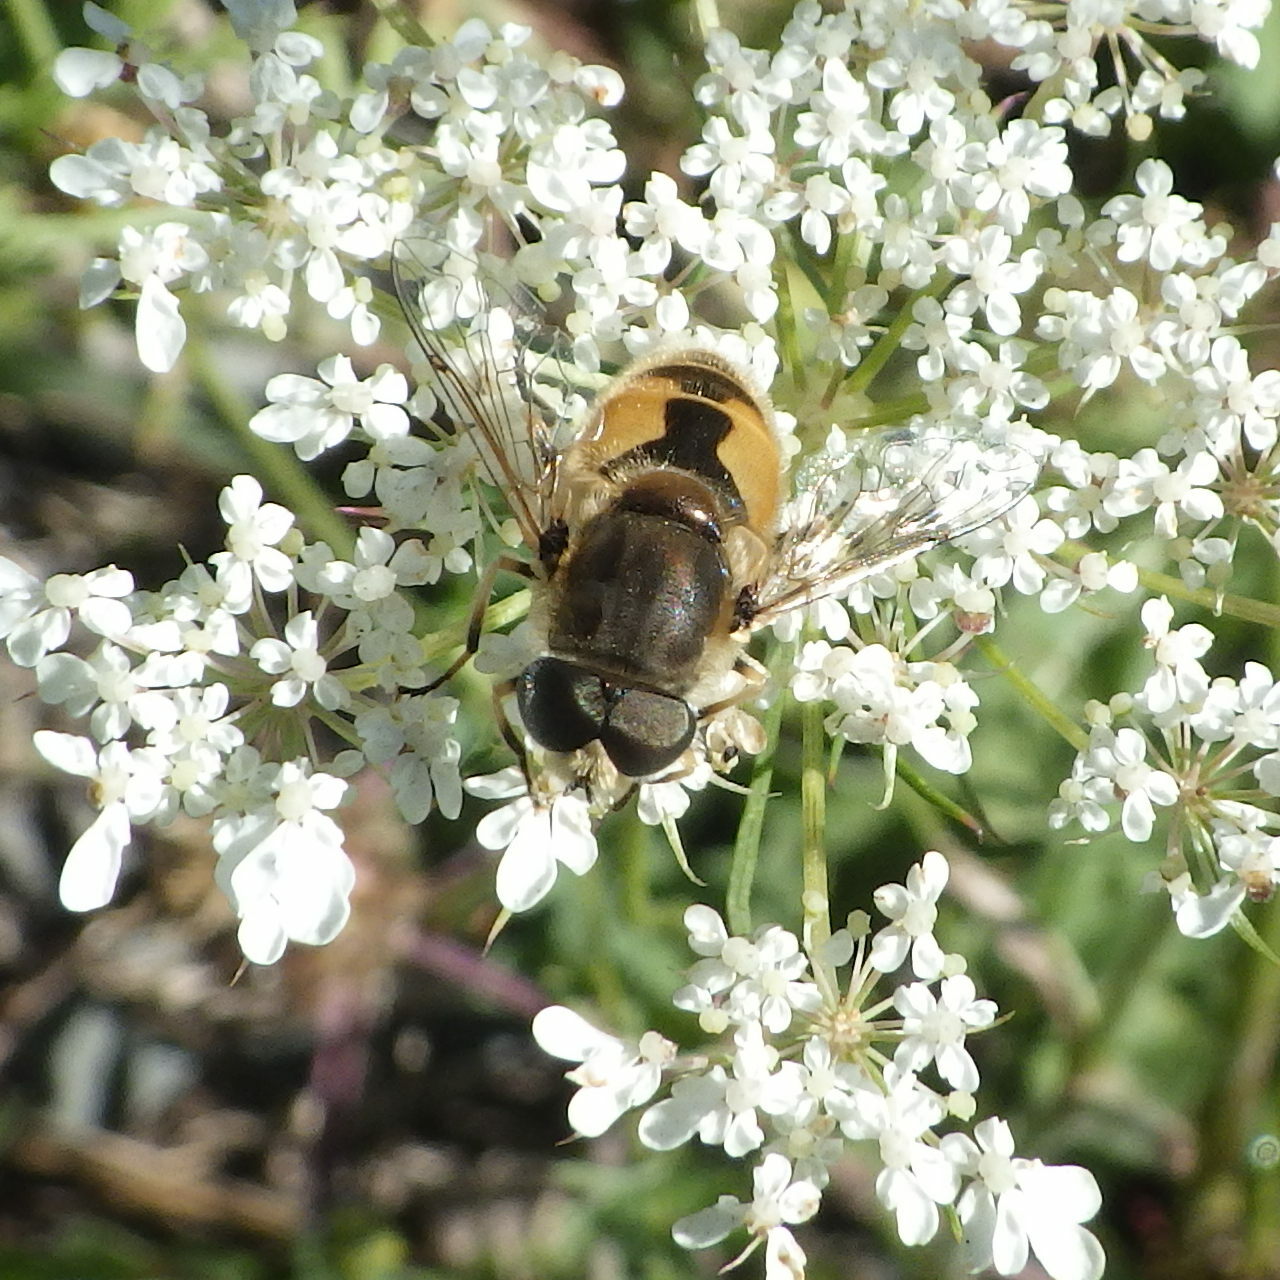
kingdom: Animalia
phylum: Arthropoda
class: Insecta
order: Diptera
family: Syrphidae
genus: Eristalis
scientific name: Eristalis arbustorum
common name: Hover fly
